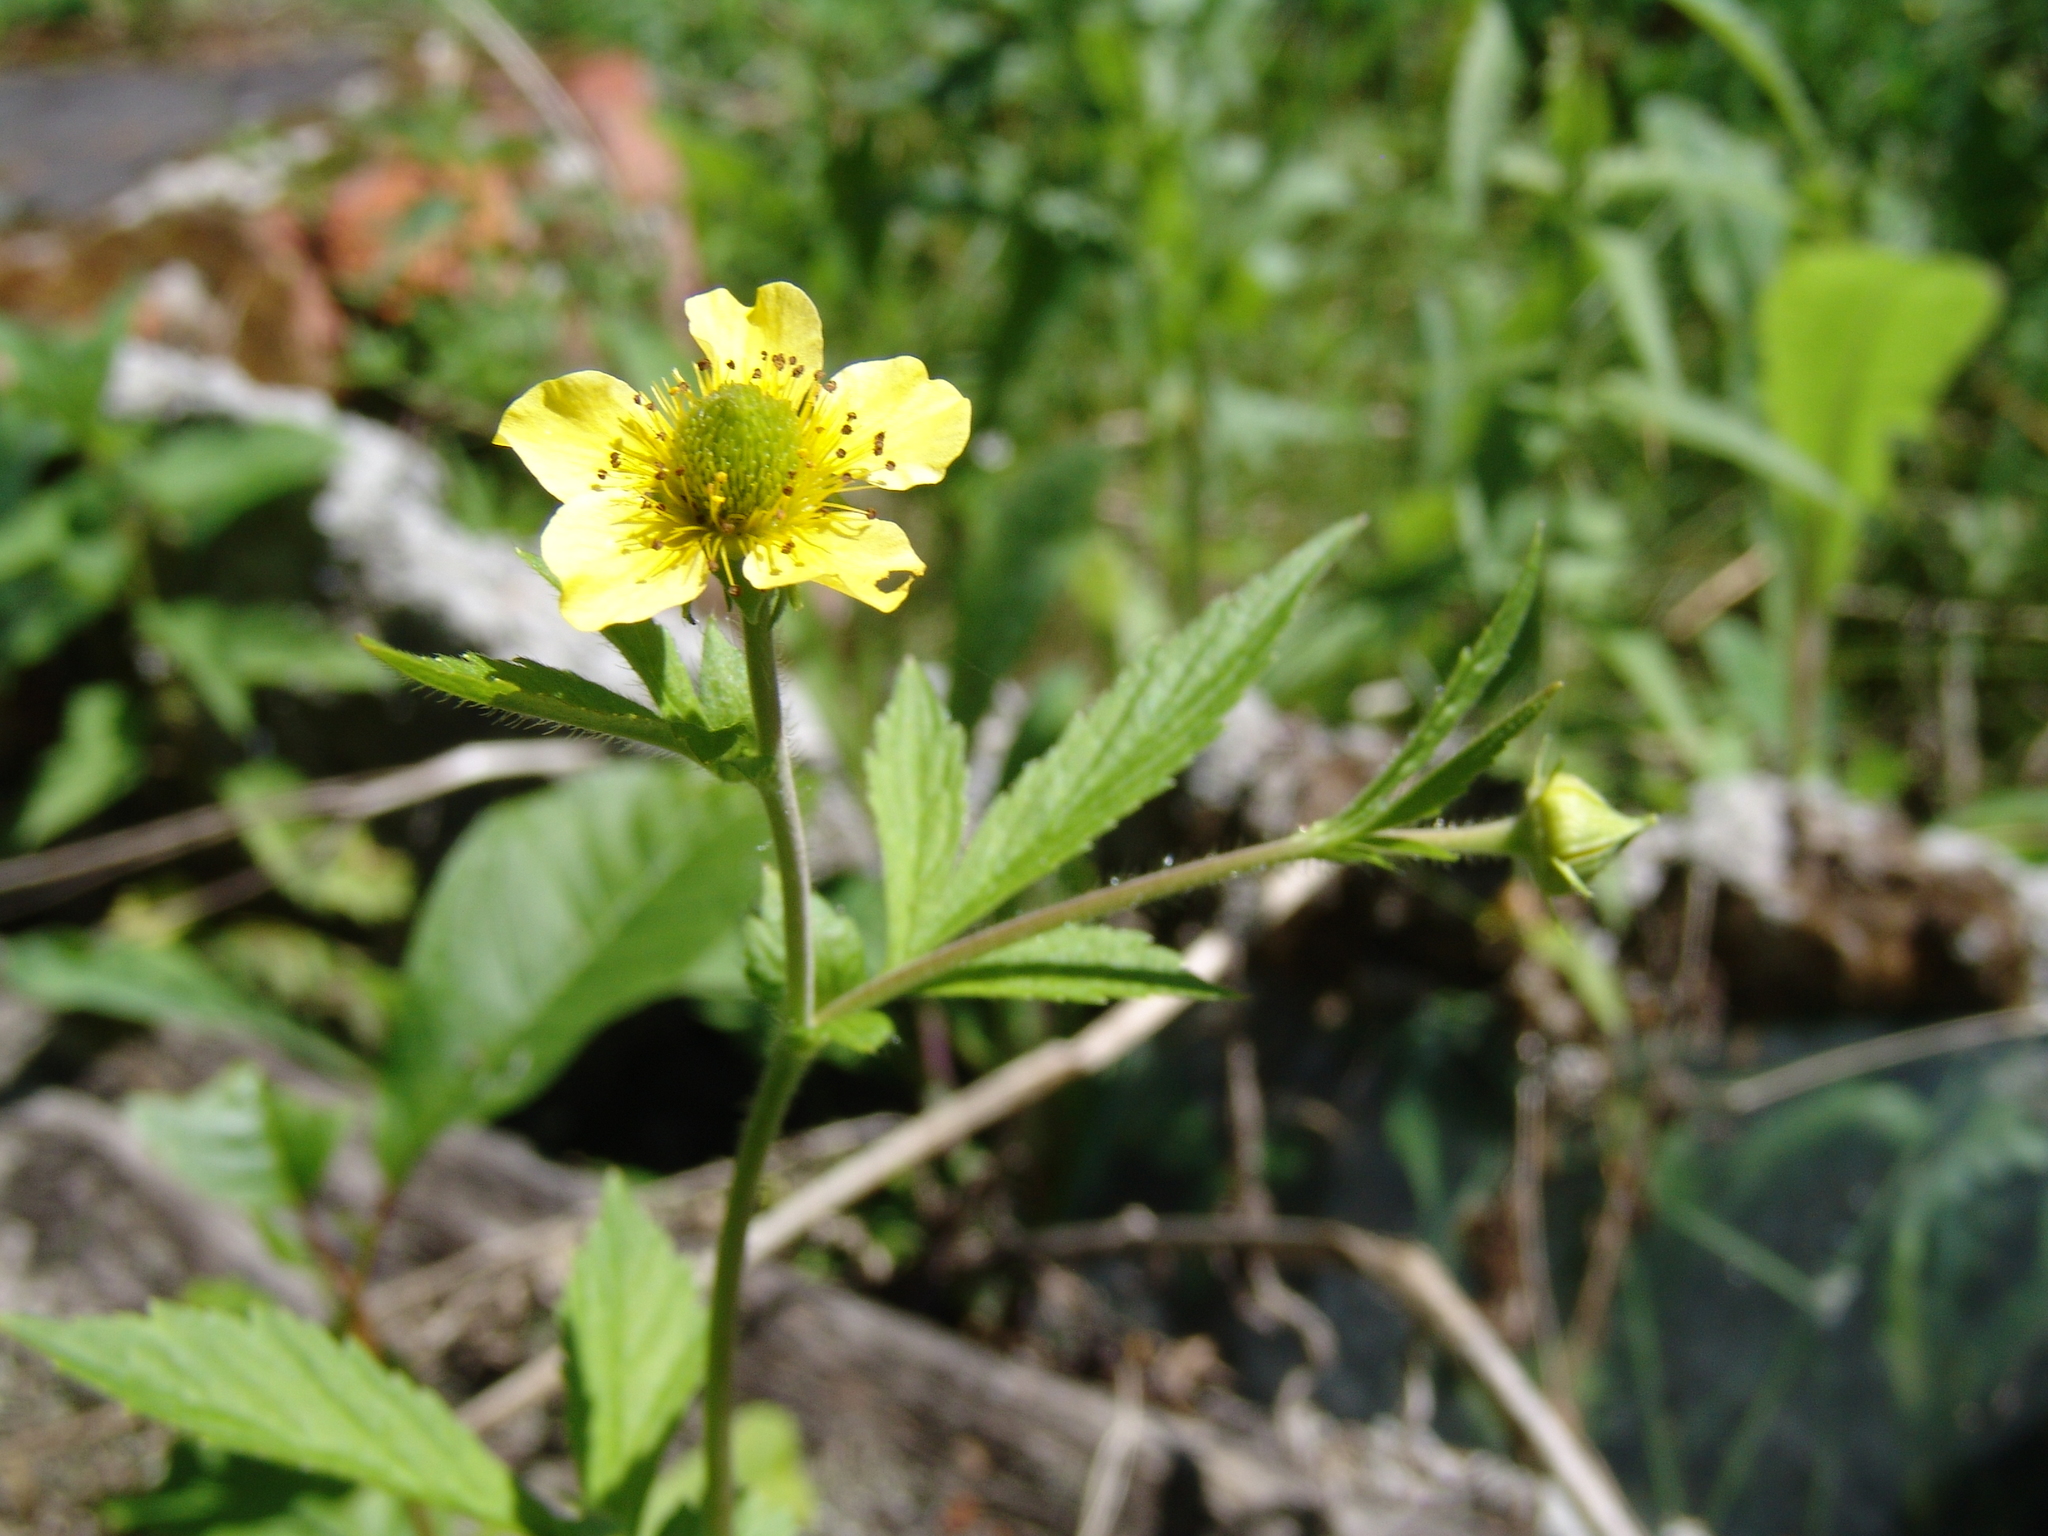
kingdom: Plantae
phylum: Tracheophyta
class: Magnoliopsida
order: Rosales
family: Rosaceae
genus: Geum
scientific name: Geum aleppicum
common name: Yellow avens
